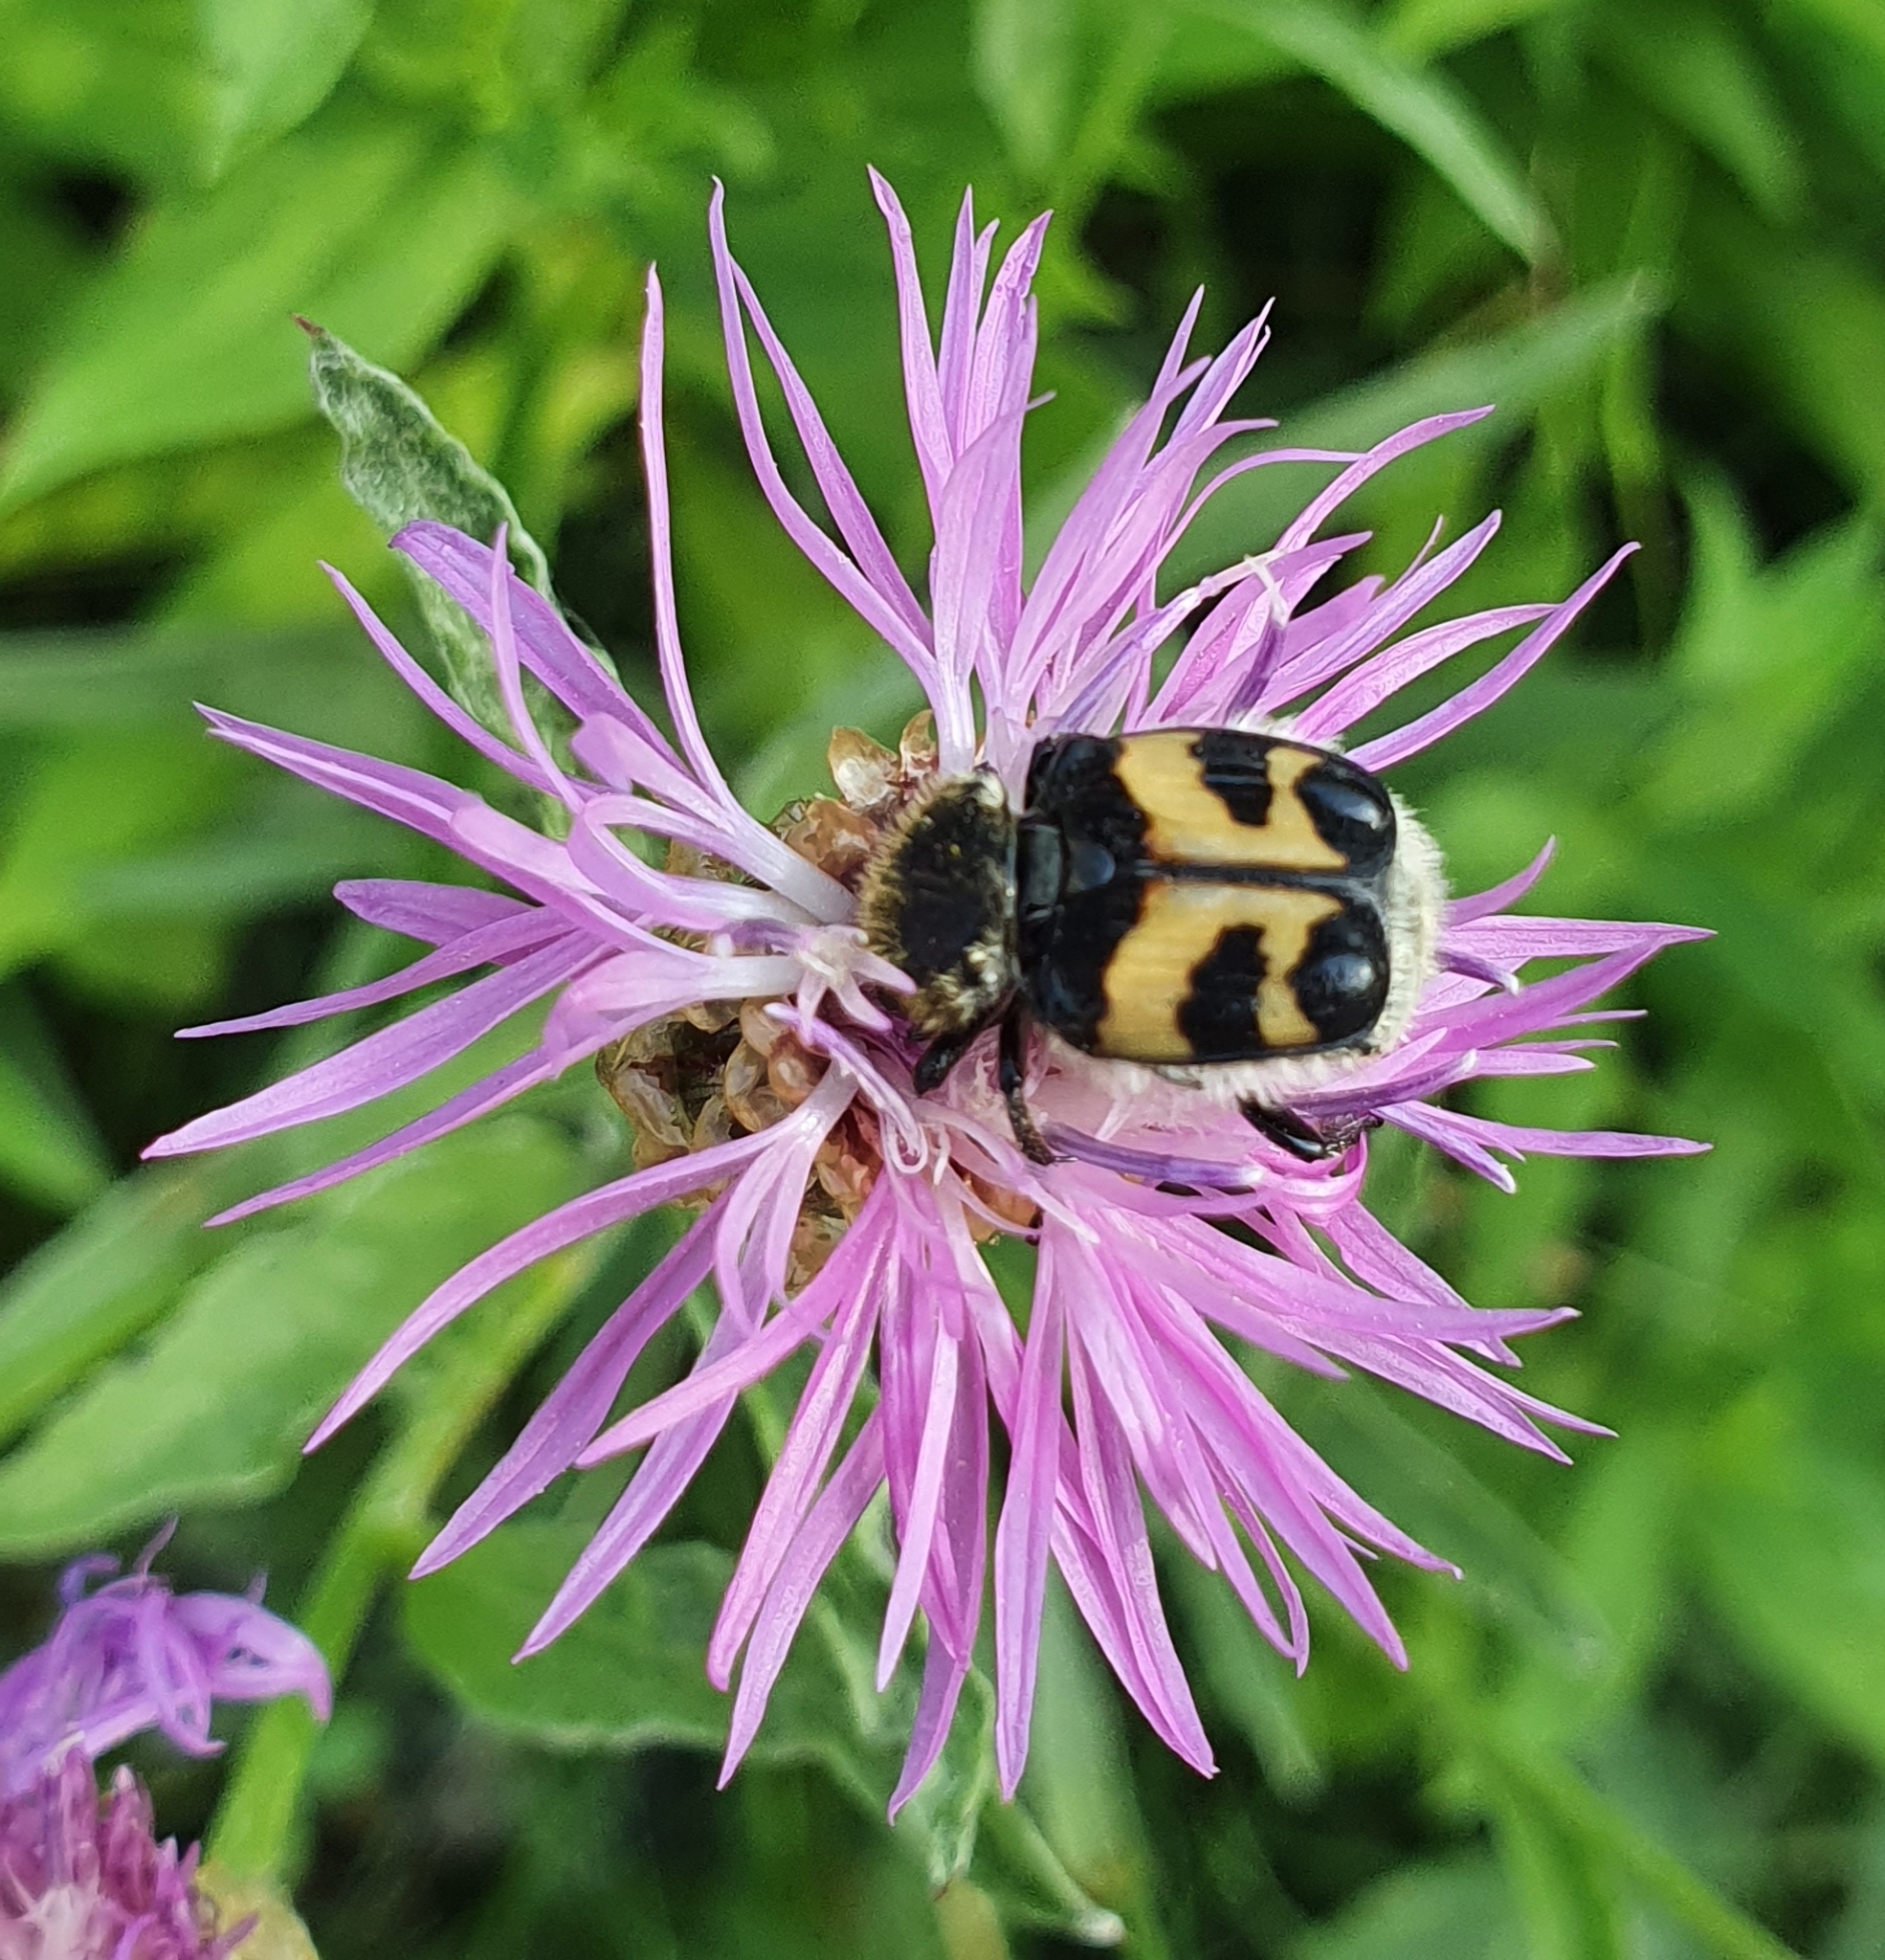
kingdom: Animalia
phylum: Arthropoda
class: Insecta
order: Coleoptera
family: Scarabaeidae
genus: Trichius
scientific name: Trichius fasciatus
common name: Bee beetle
